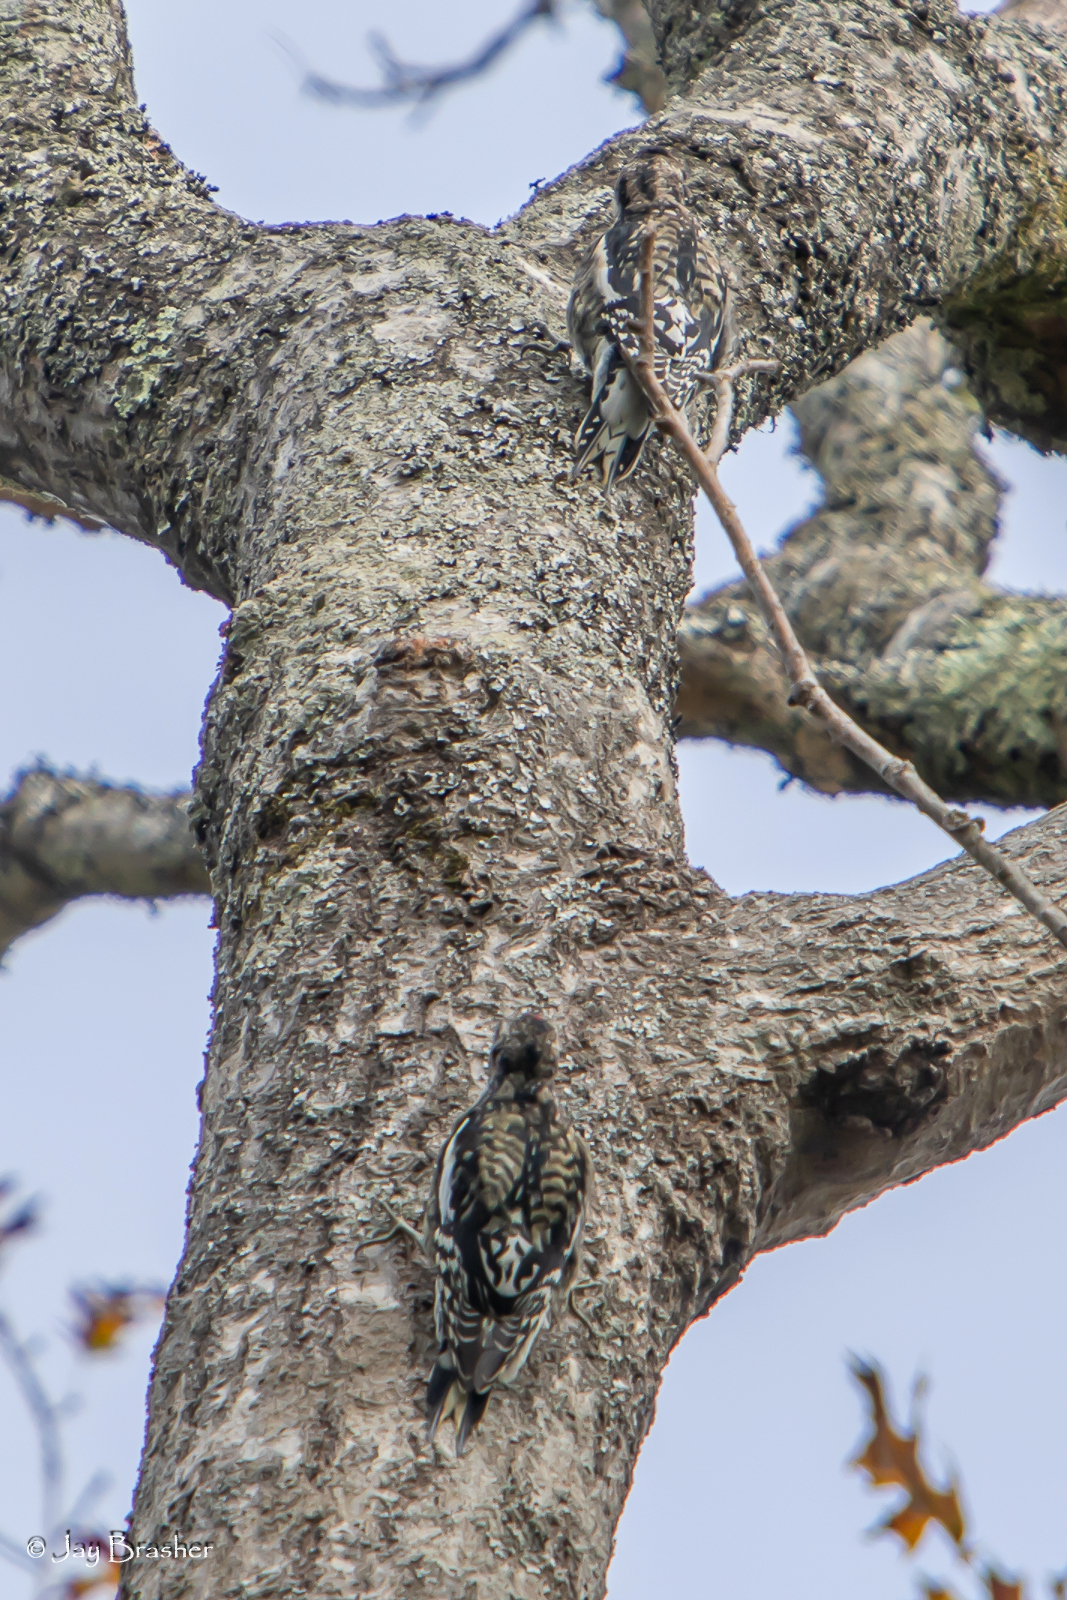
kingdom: Animalia
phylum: Chordata
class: Aves
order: Piciformes
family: Picidae
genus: Sphyrapicus
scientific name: Sphyrapicus varius
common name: Yellow-bellied sapsucker
